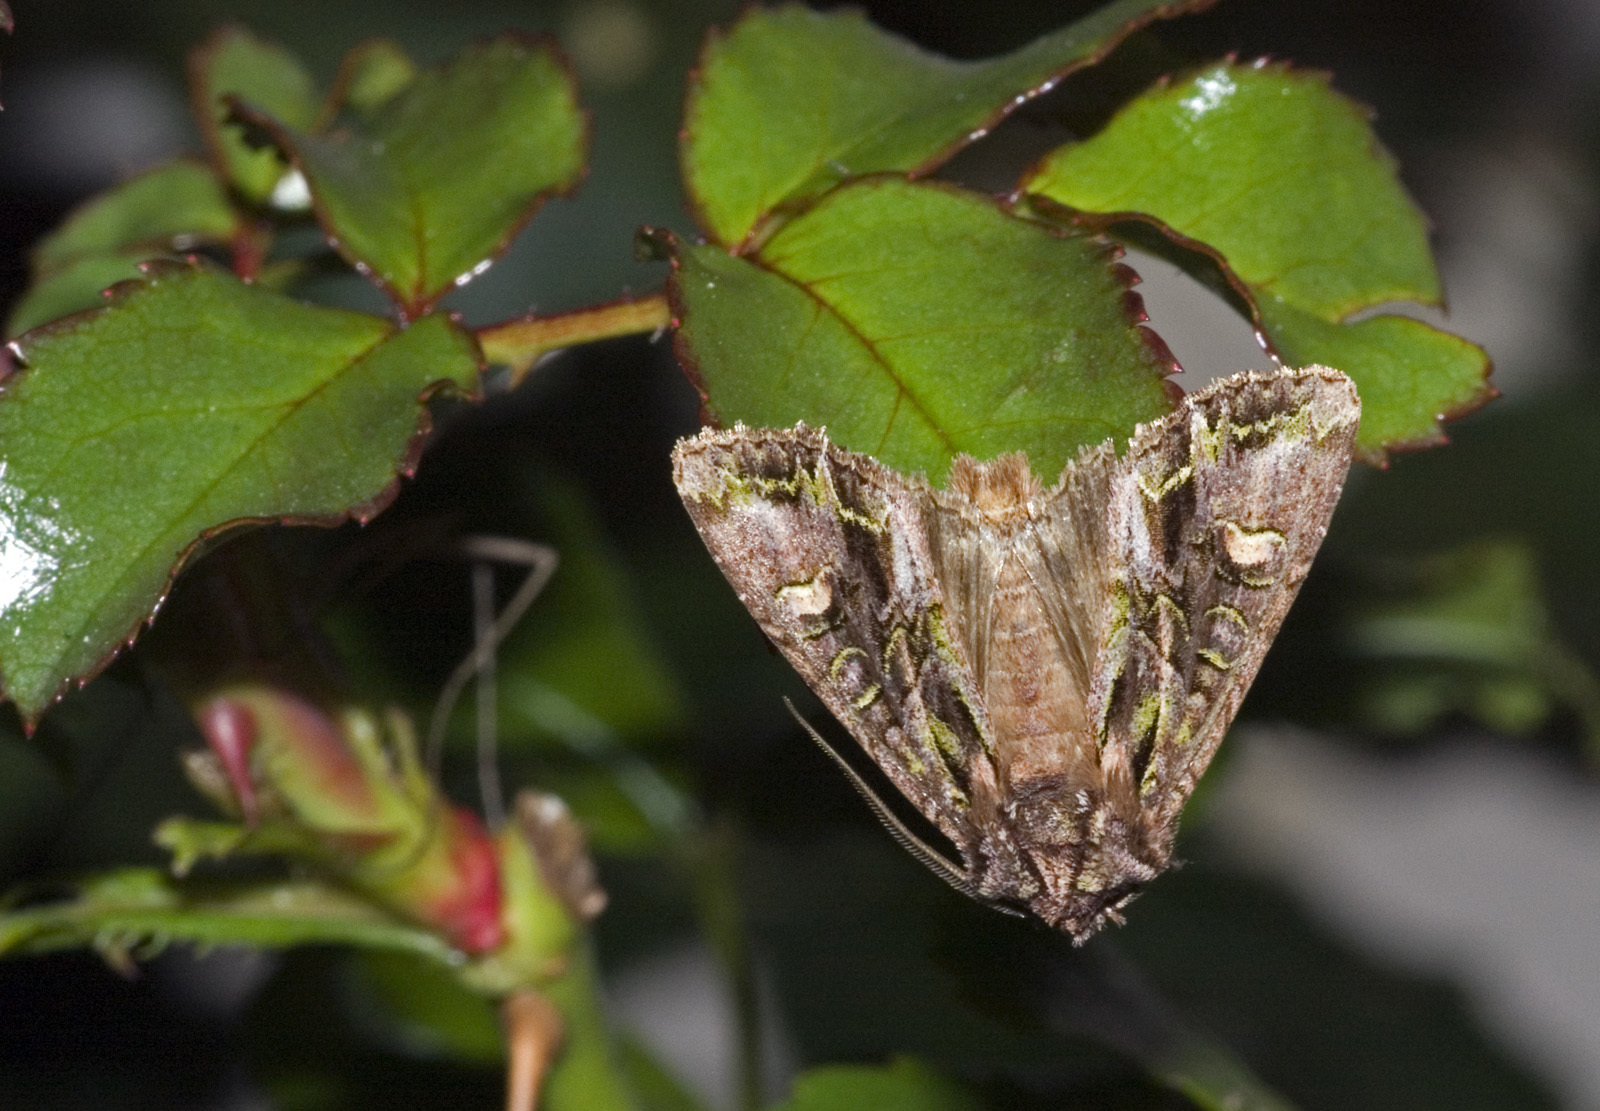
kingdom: Animalia
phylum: Arthropoda
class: Insecta
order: Lepidoptera
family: Noctuidae
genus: Ichneutica
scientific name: Ichneutica insignis
